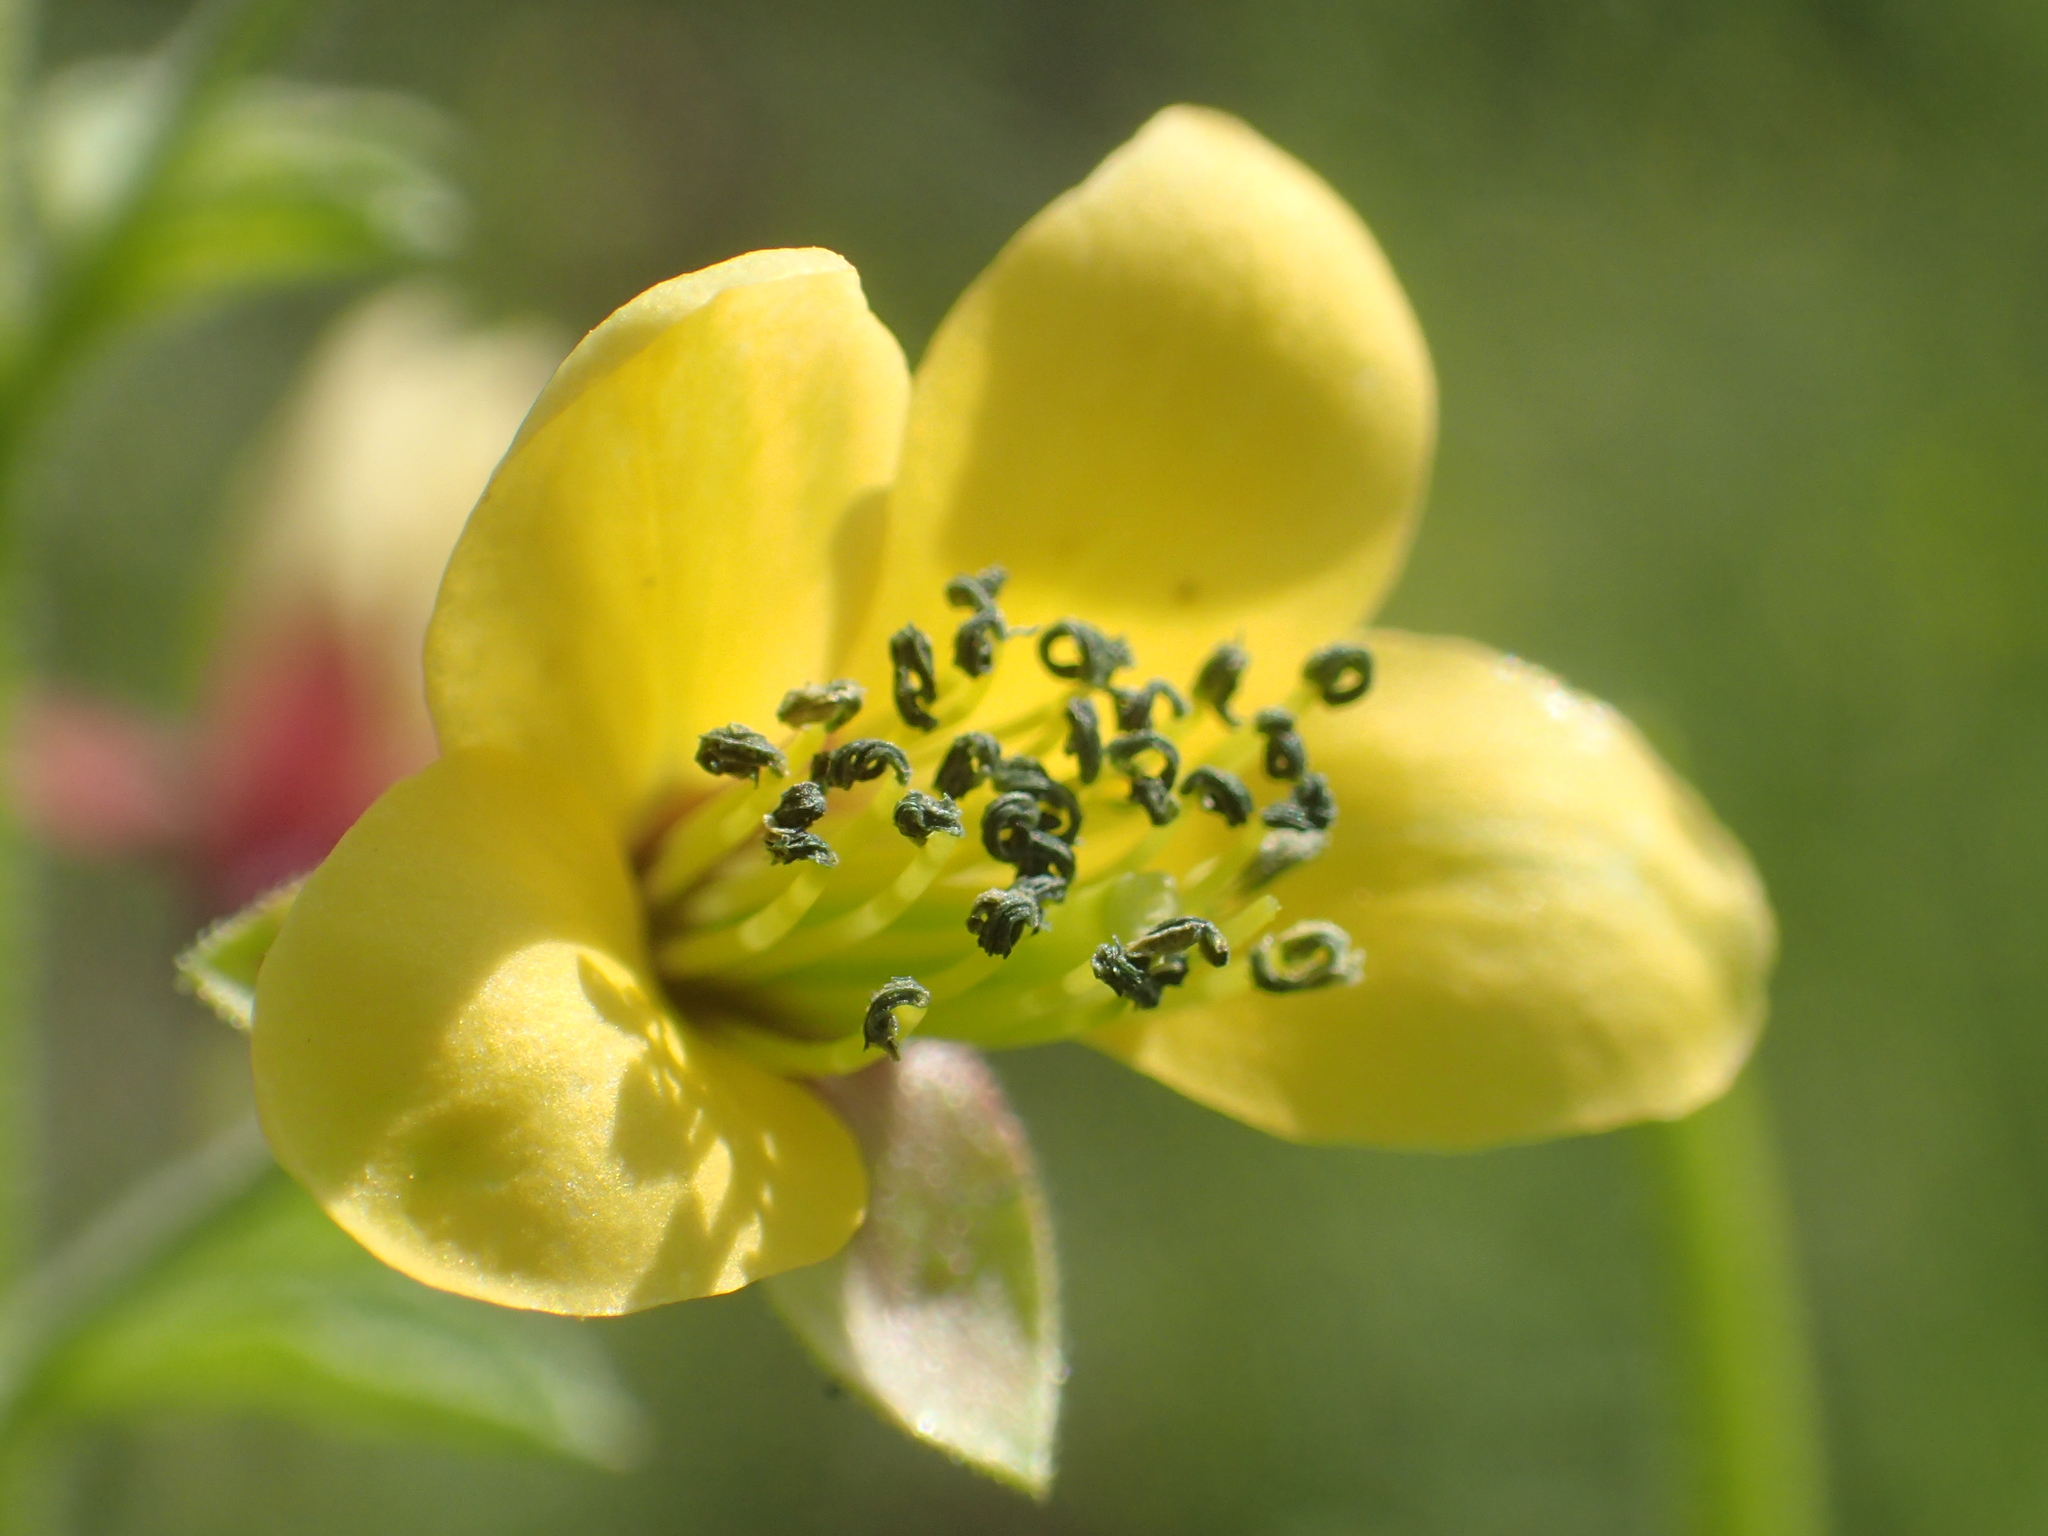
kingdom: Plantae
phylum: Tracheophyta
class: Magnoliopsida
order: Brassicales
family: Cleomaceae
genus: Arivela
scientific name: Arivela viscosa
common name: Asian spiderflower
